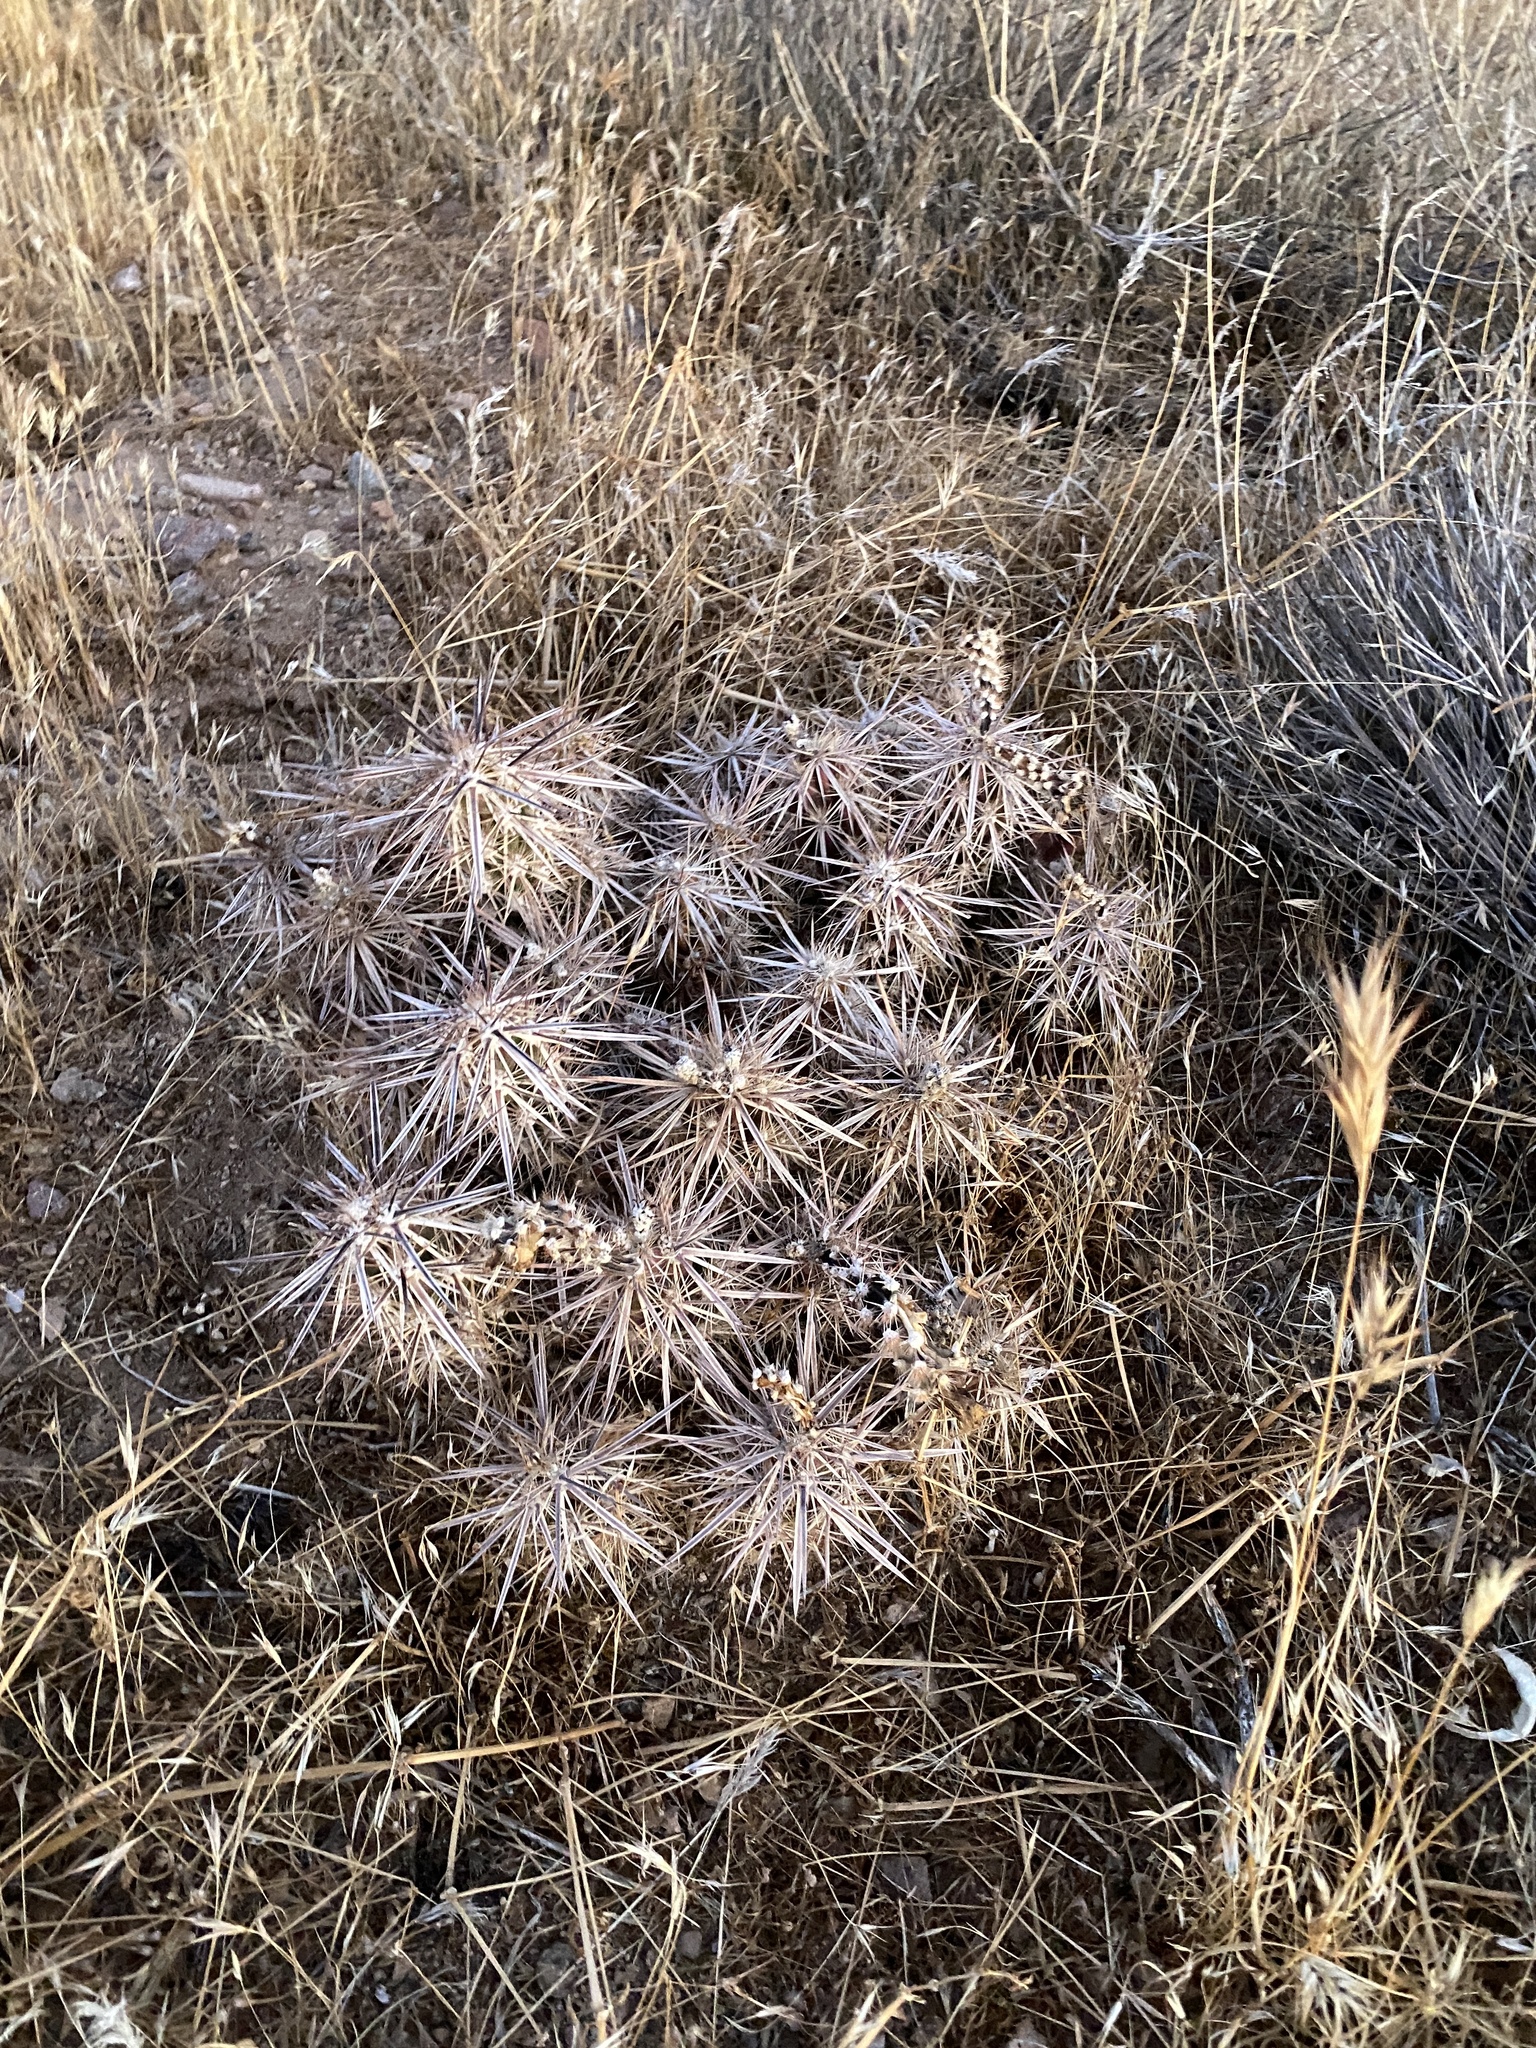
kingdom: Plantae
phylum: Tracheophyta
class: Magnoliopsida
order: Caryophyllales
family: Cactaceae
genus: Grusonia
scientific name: Grusonia parishiorum
